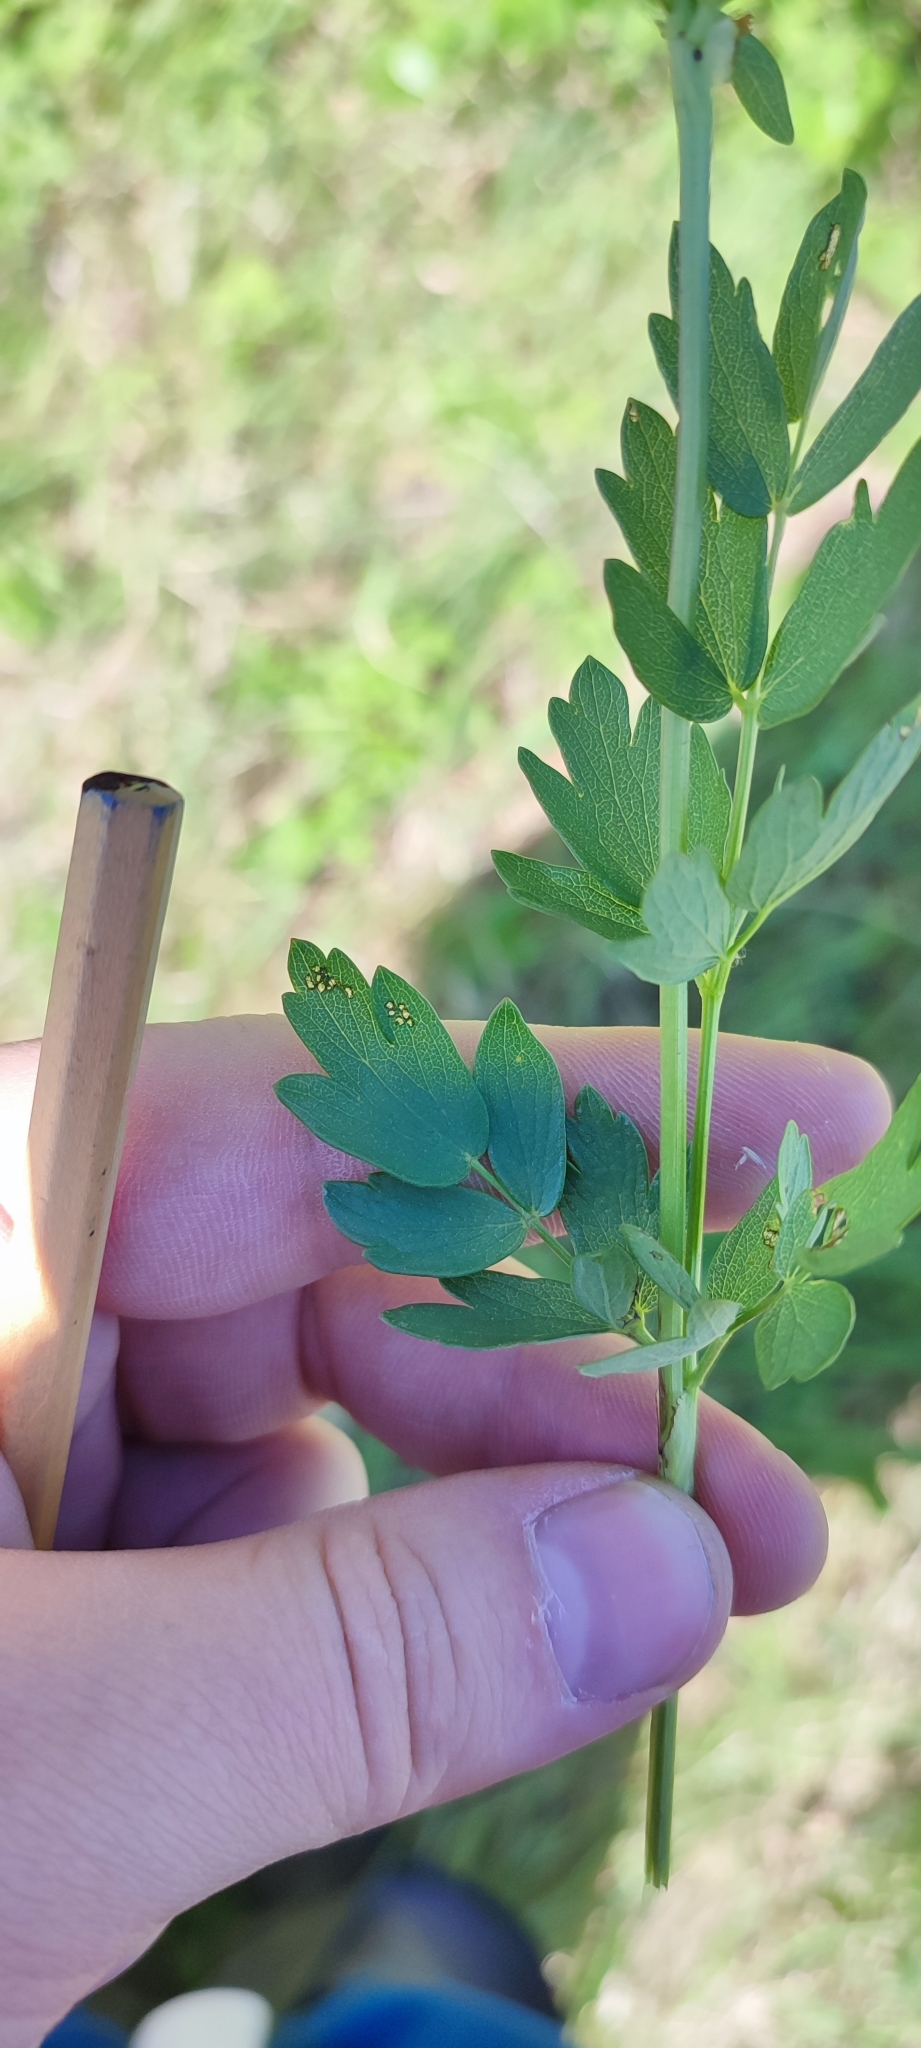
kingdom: Plantae
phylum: Tracheophyta
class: Magnoliopsida
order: Ranunculales
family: Ranunculaceae
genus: Thalictrum
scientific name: Thalictrum simplex
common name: Small meadow-rue
